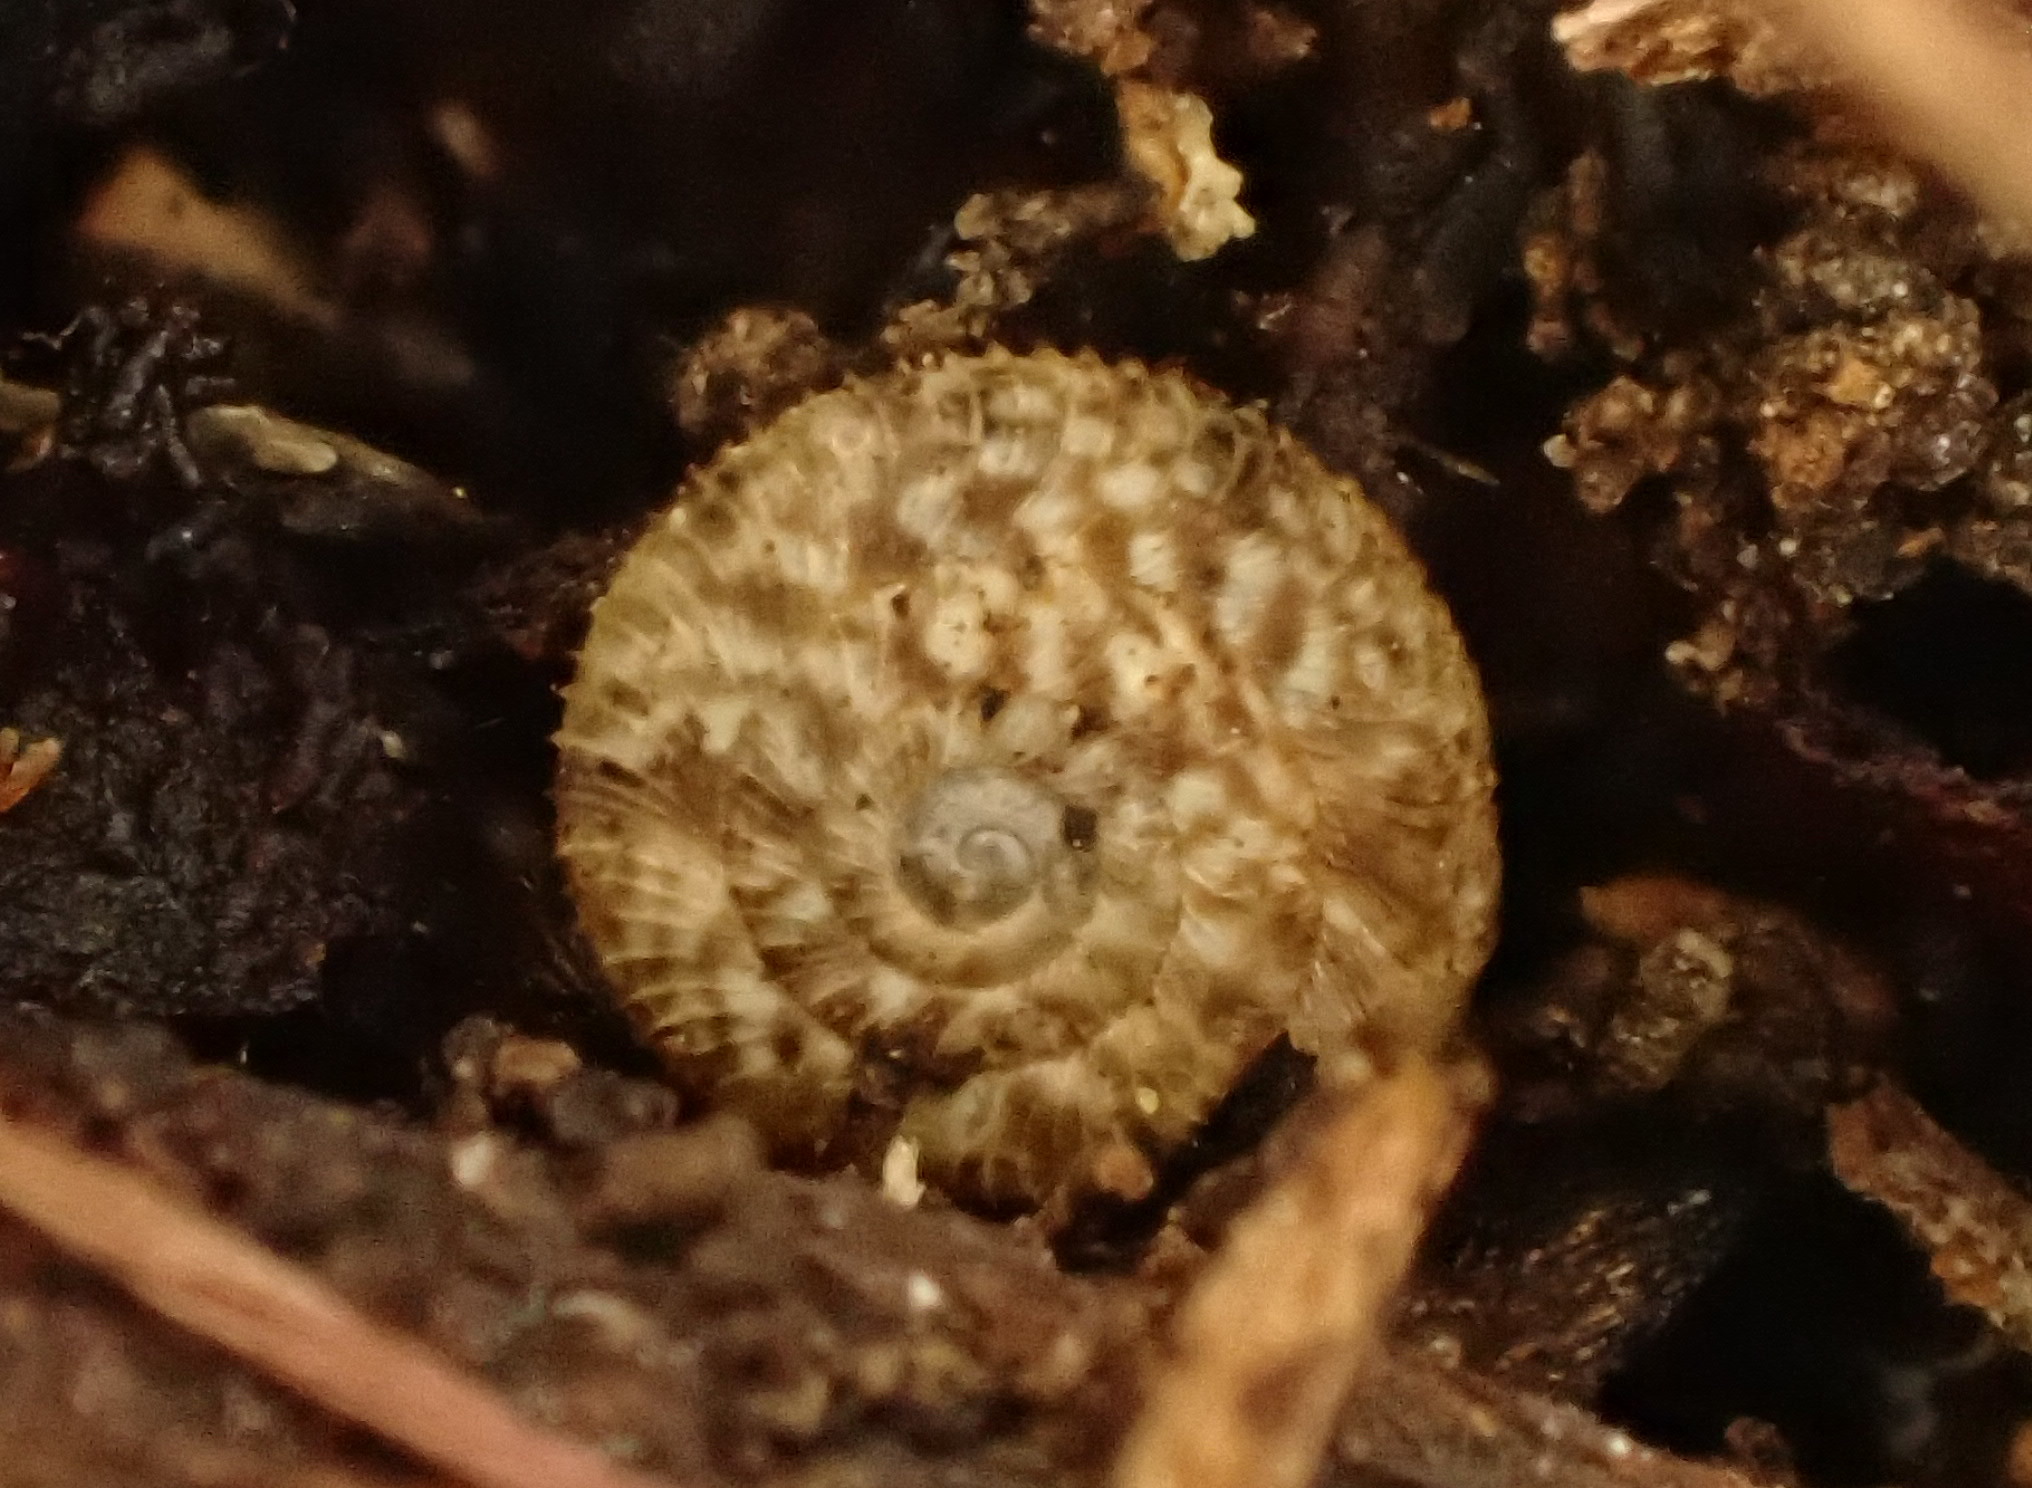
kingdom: Animalia
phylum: Mollusca
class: Gastropoda
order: Stylommatophora
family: Charopidae
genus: Cavellia
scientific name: Cavellia buccinella
